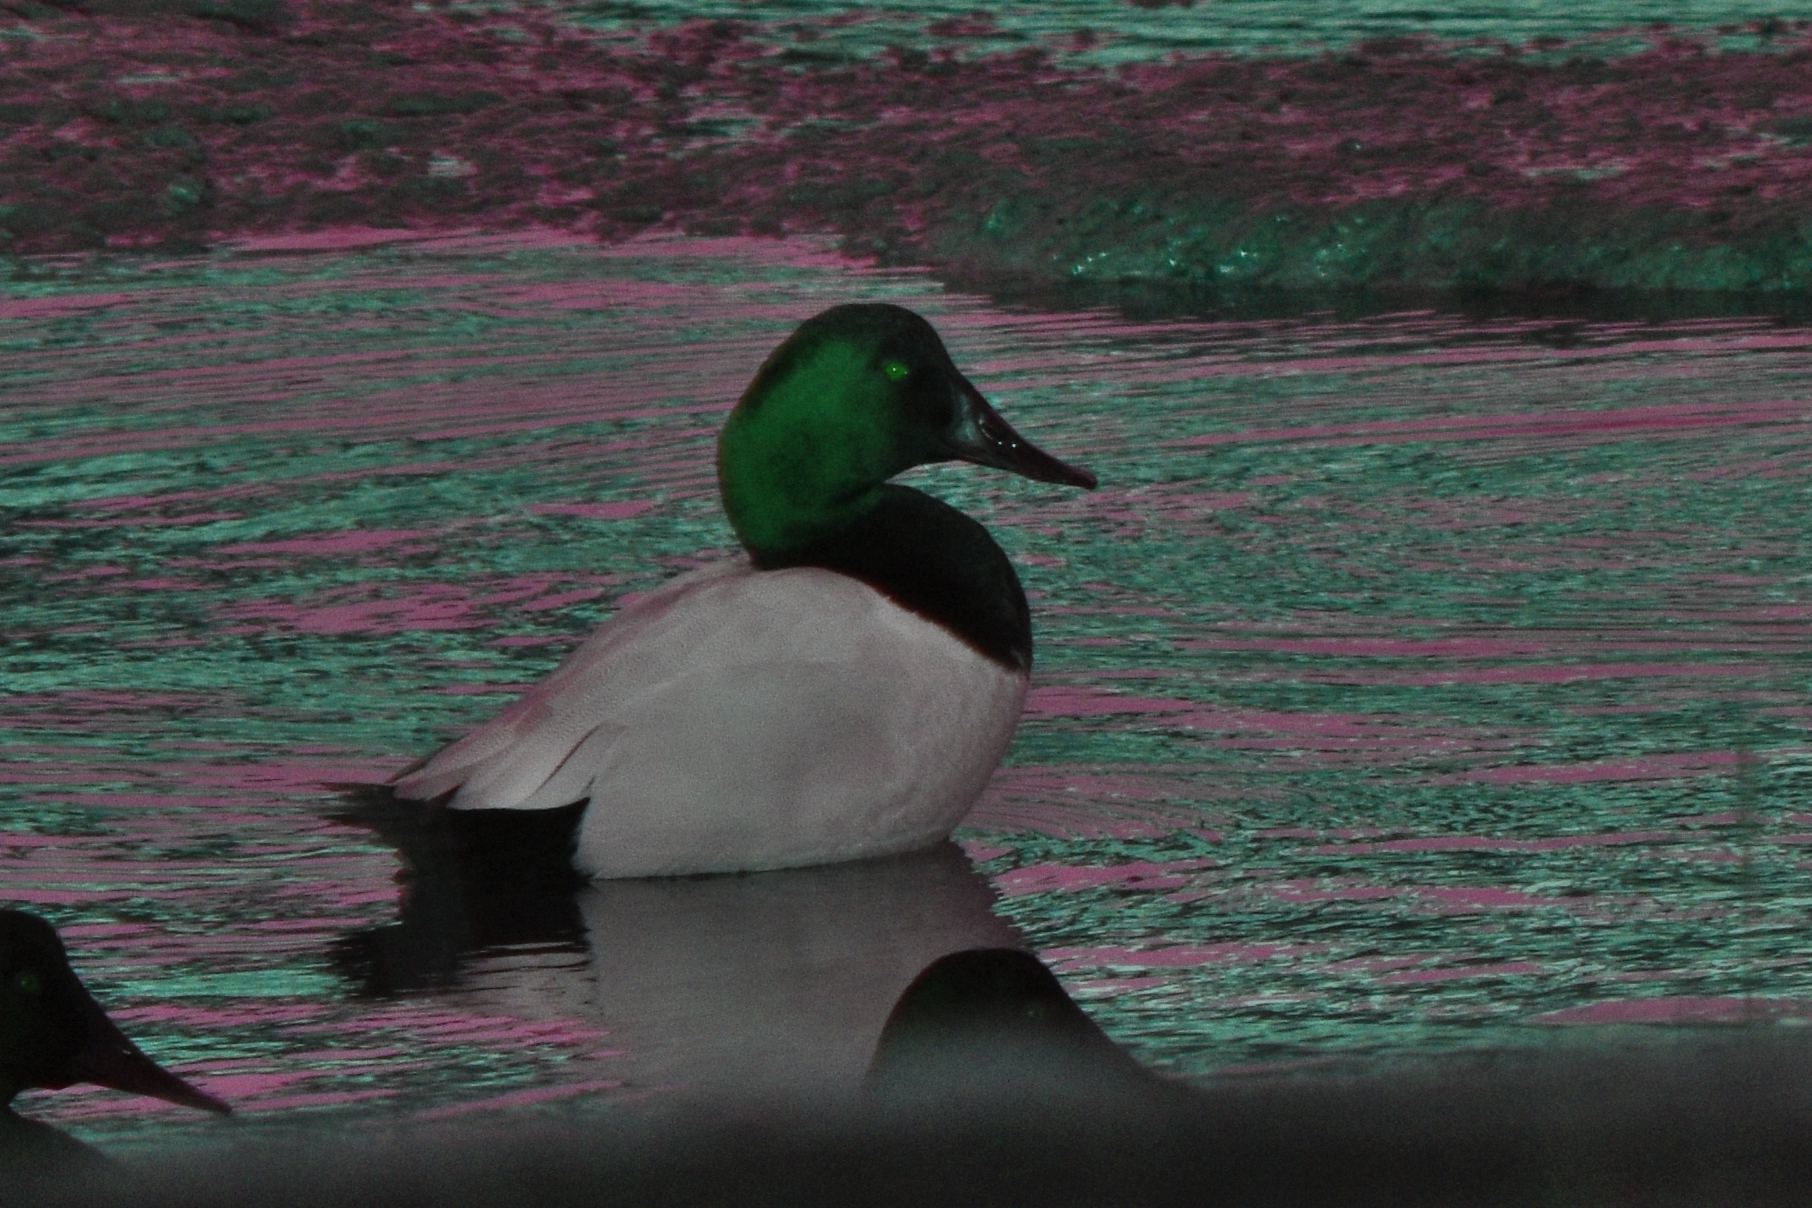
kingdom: Animalia
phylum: Chordata
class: Aves
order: Anseriformes
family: Anatidae
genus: Aythya
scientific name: Aythya valisineria
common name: Canvasback
